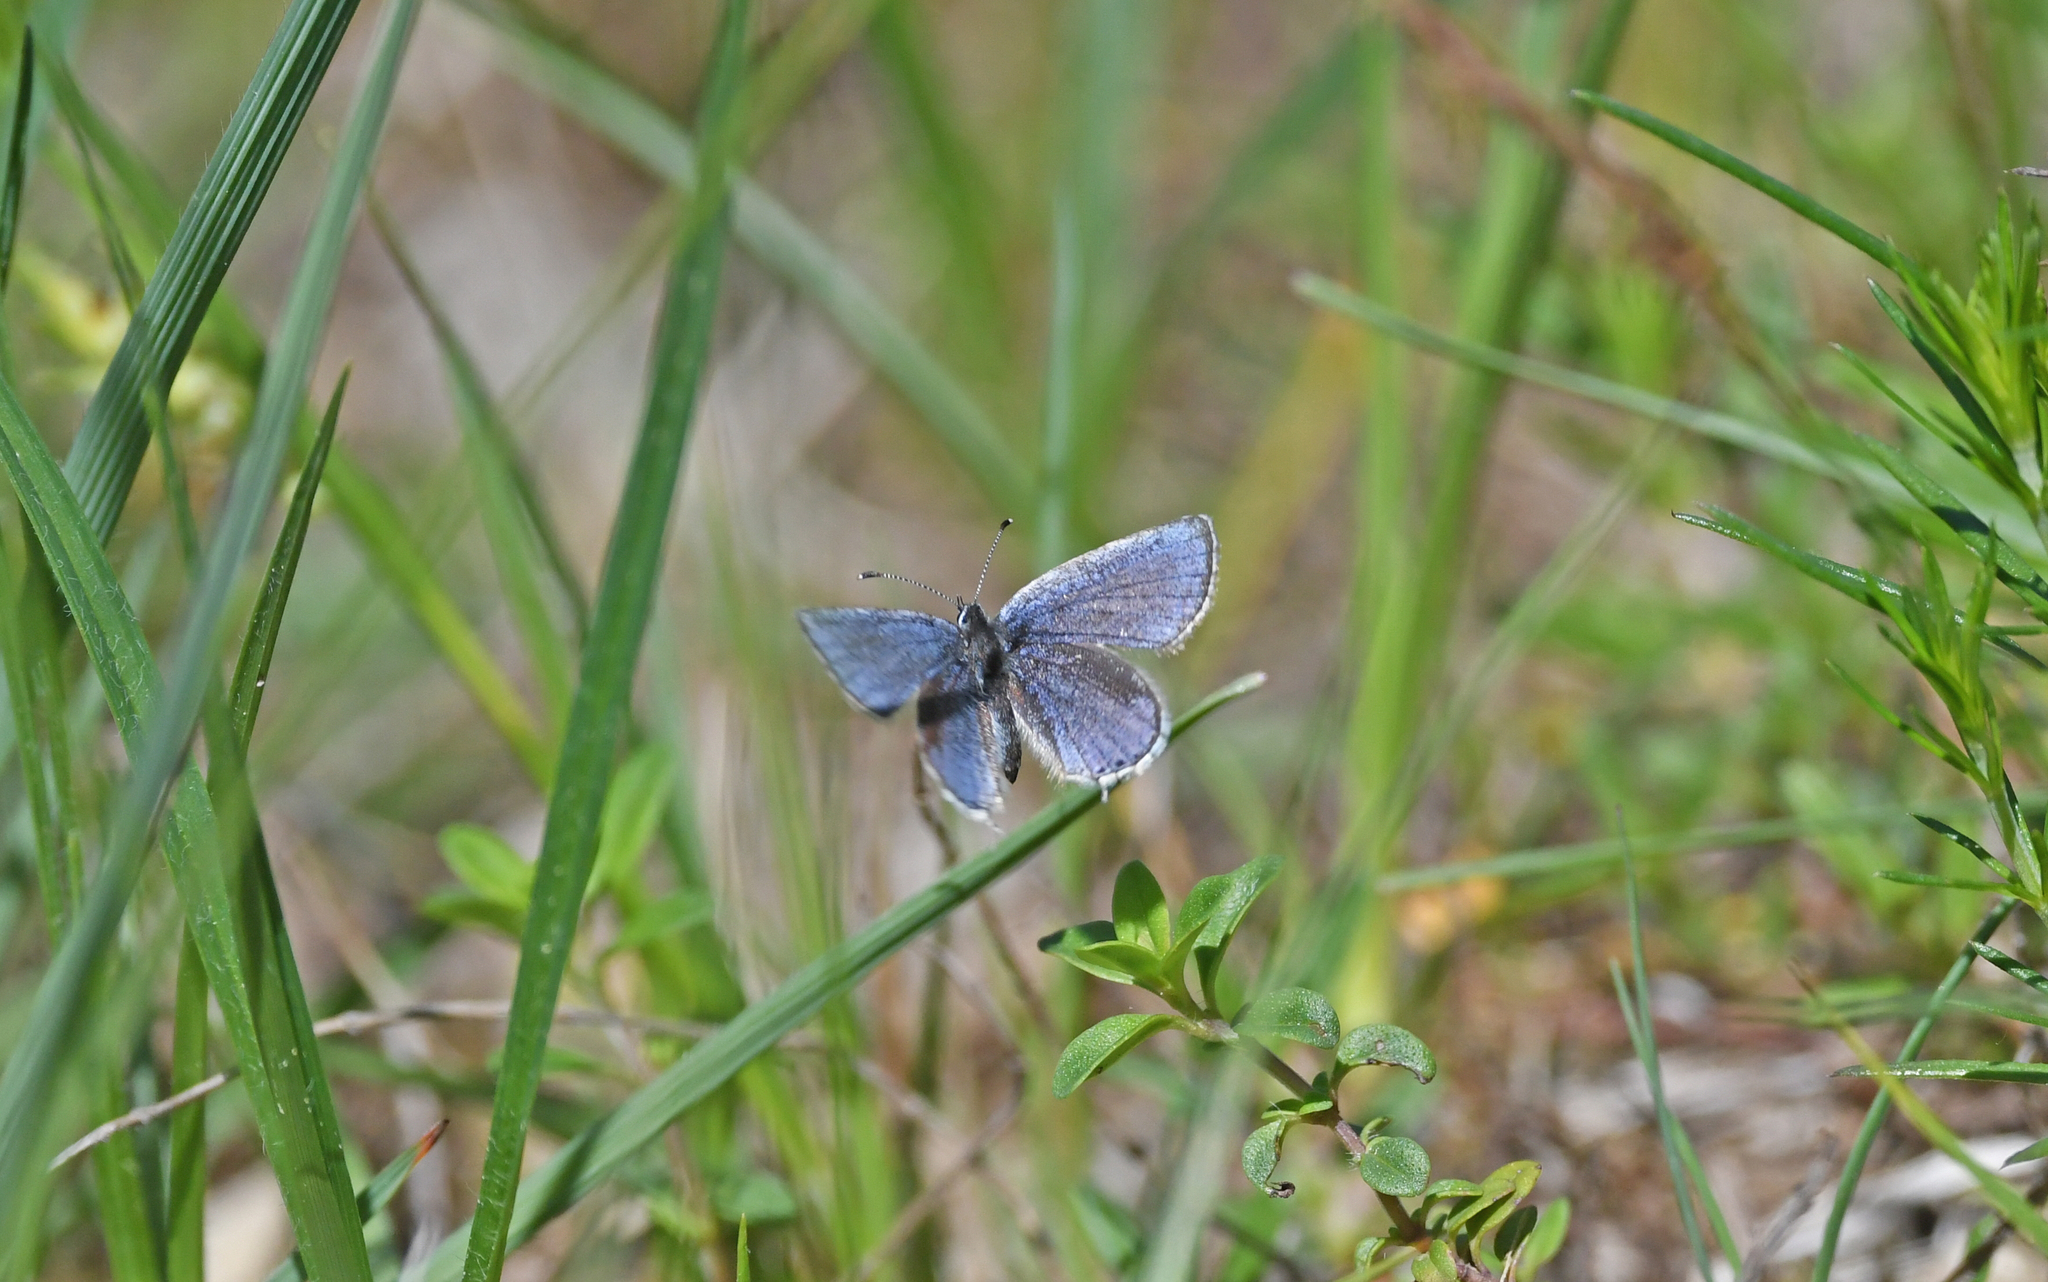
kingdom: Animalia
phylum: Arthropoda
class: Insecta
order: Lepidoptera
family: Lycaenidae
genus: Elkalyce
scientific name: Elkalyce argiades
